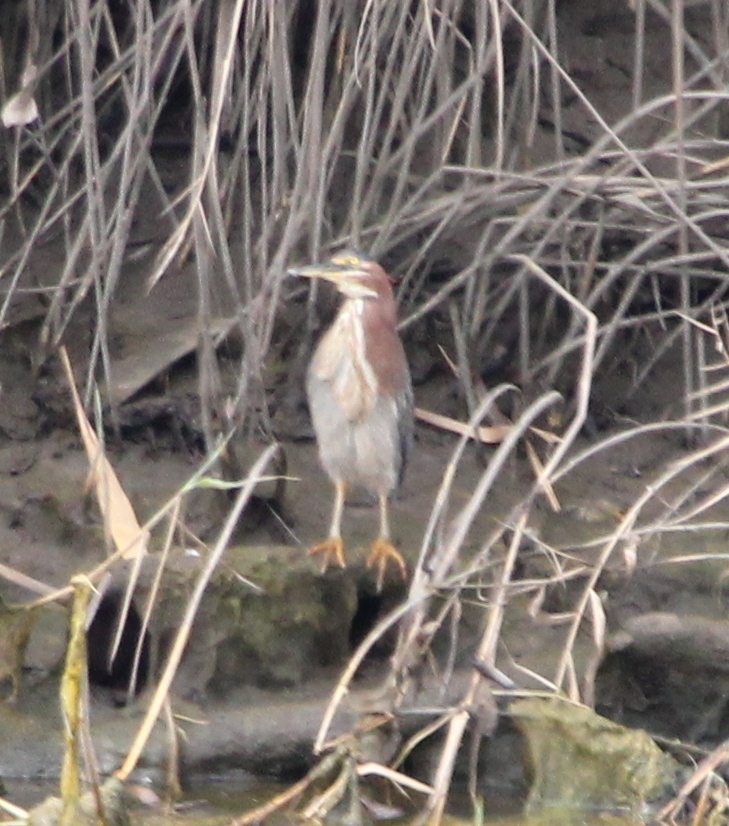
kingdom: Animalia
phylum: Chordata
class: Aves
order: Pelecaniformes
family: Ardeidae
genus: Butorides
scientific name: Butorides virescens
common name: Green heron
